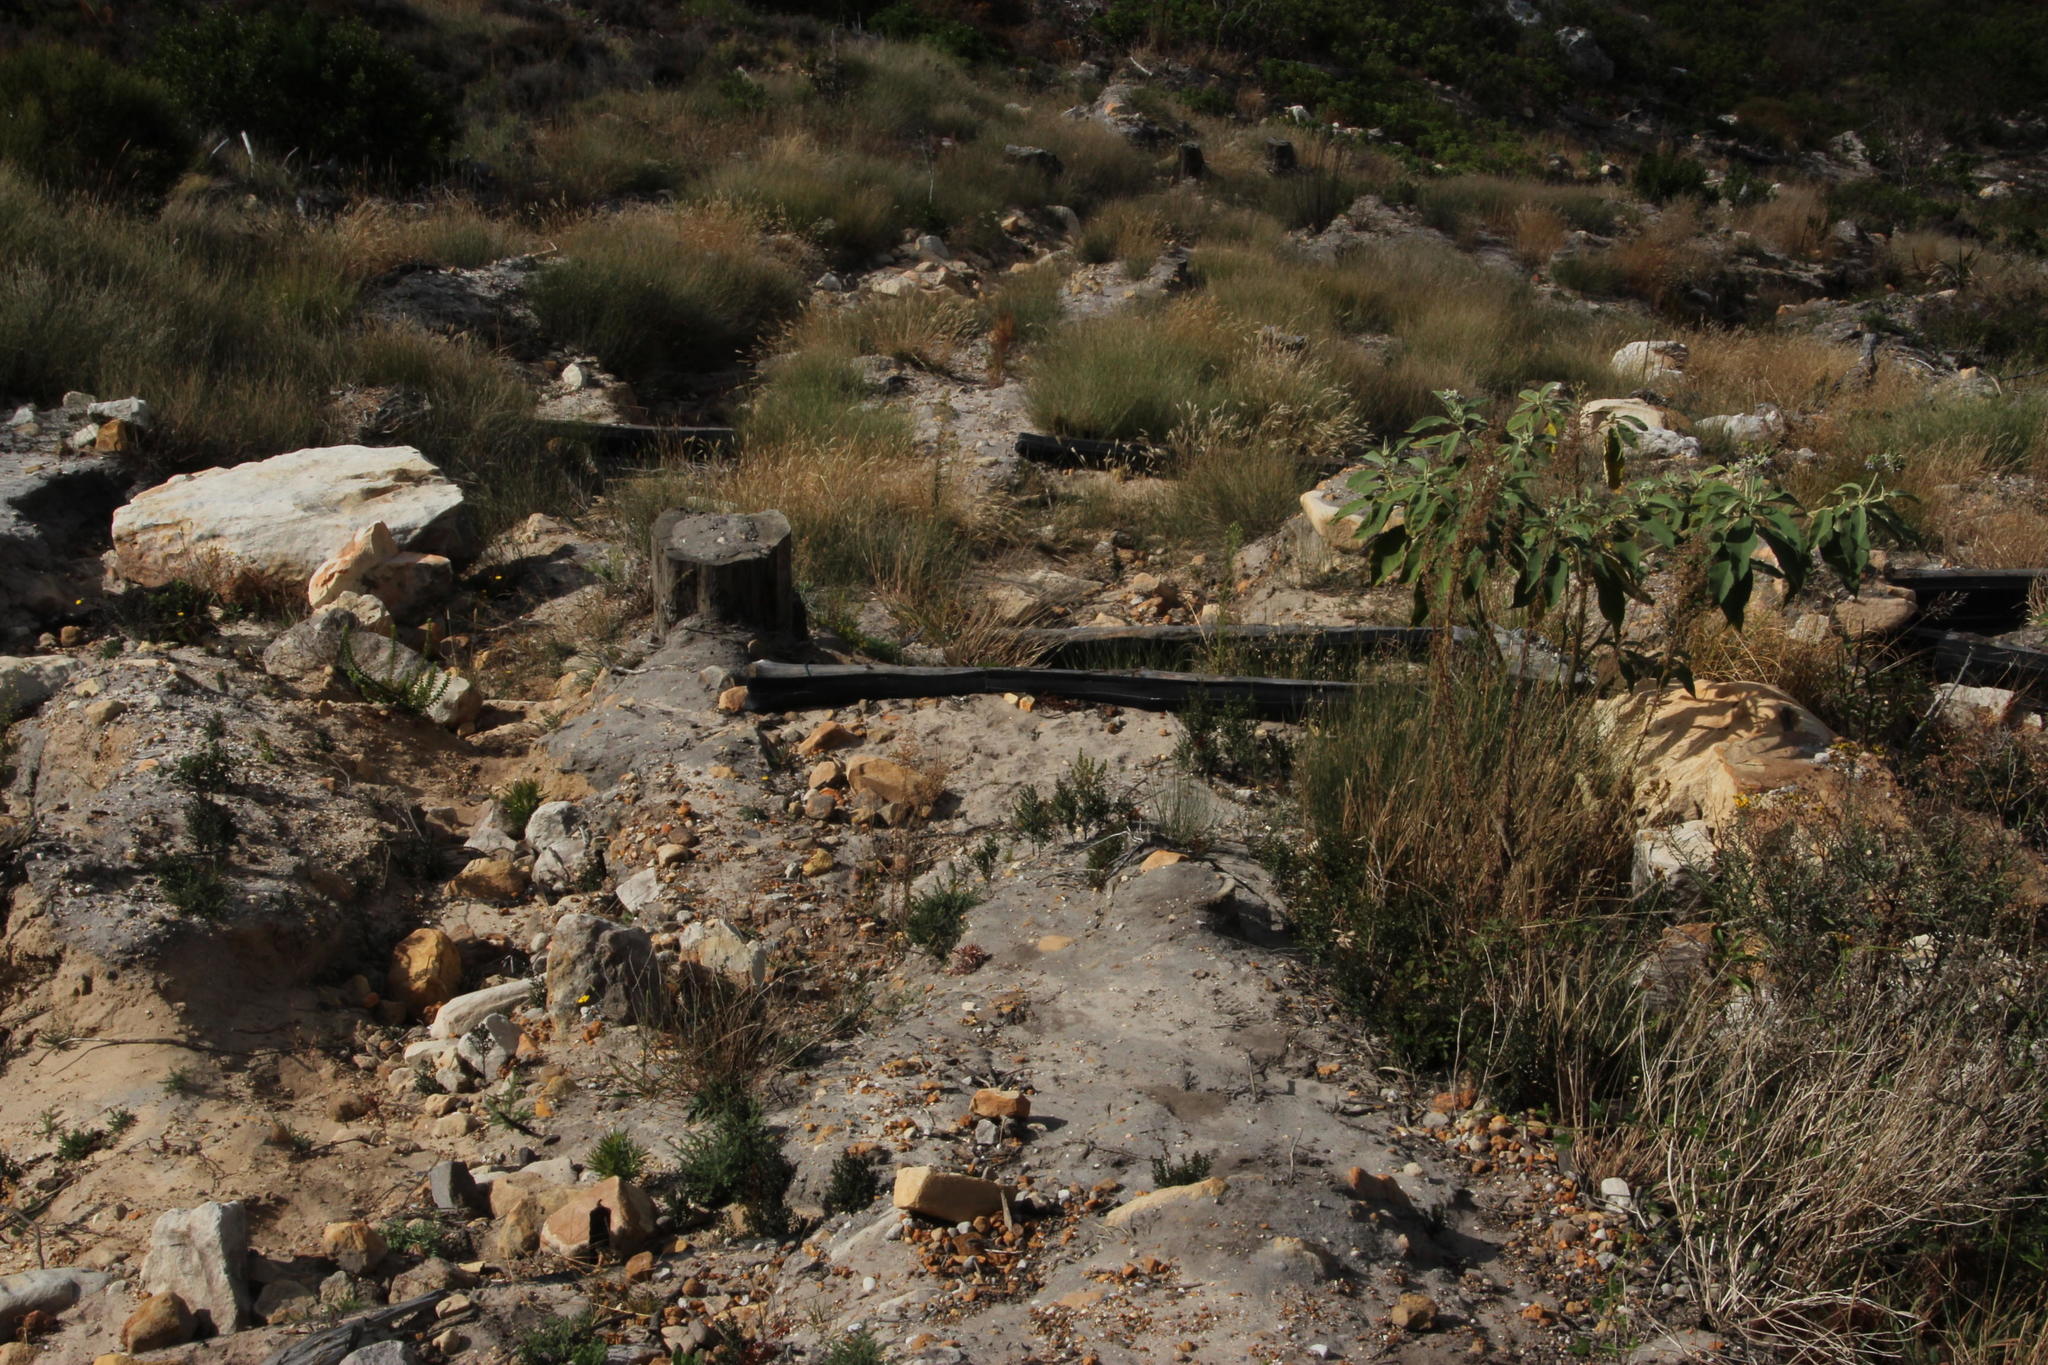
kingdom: Plantae
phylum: Tracheophyta
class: Magnoliopsida
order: Solanales
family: Solanaceae
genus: Solanum
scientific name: Solanum mauritianum
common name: Earleaf nightshade
